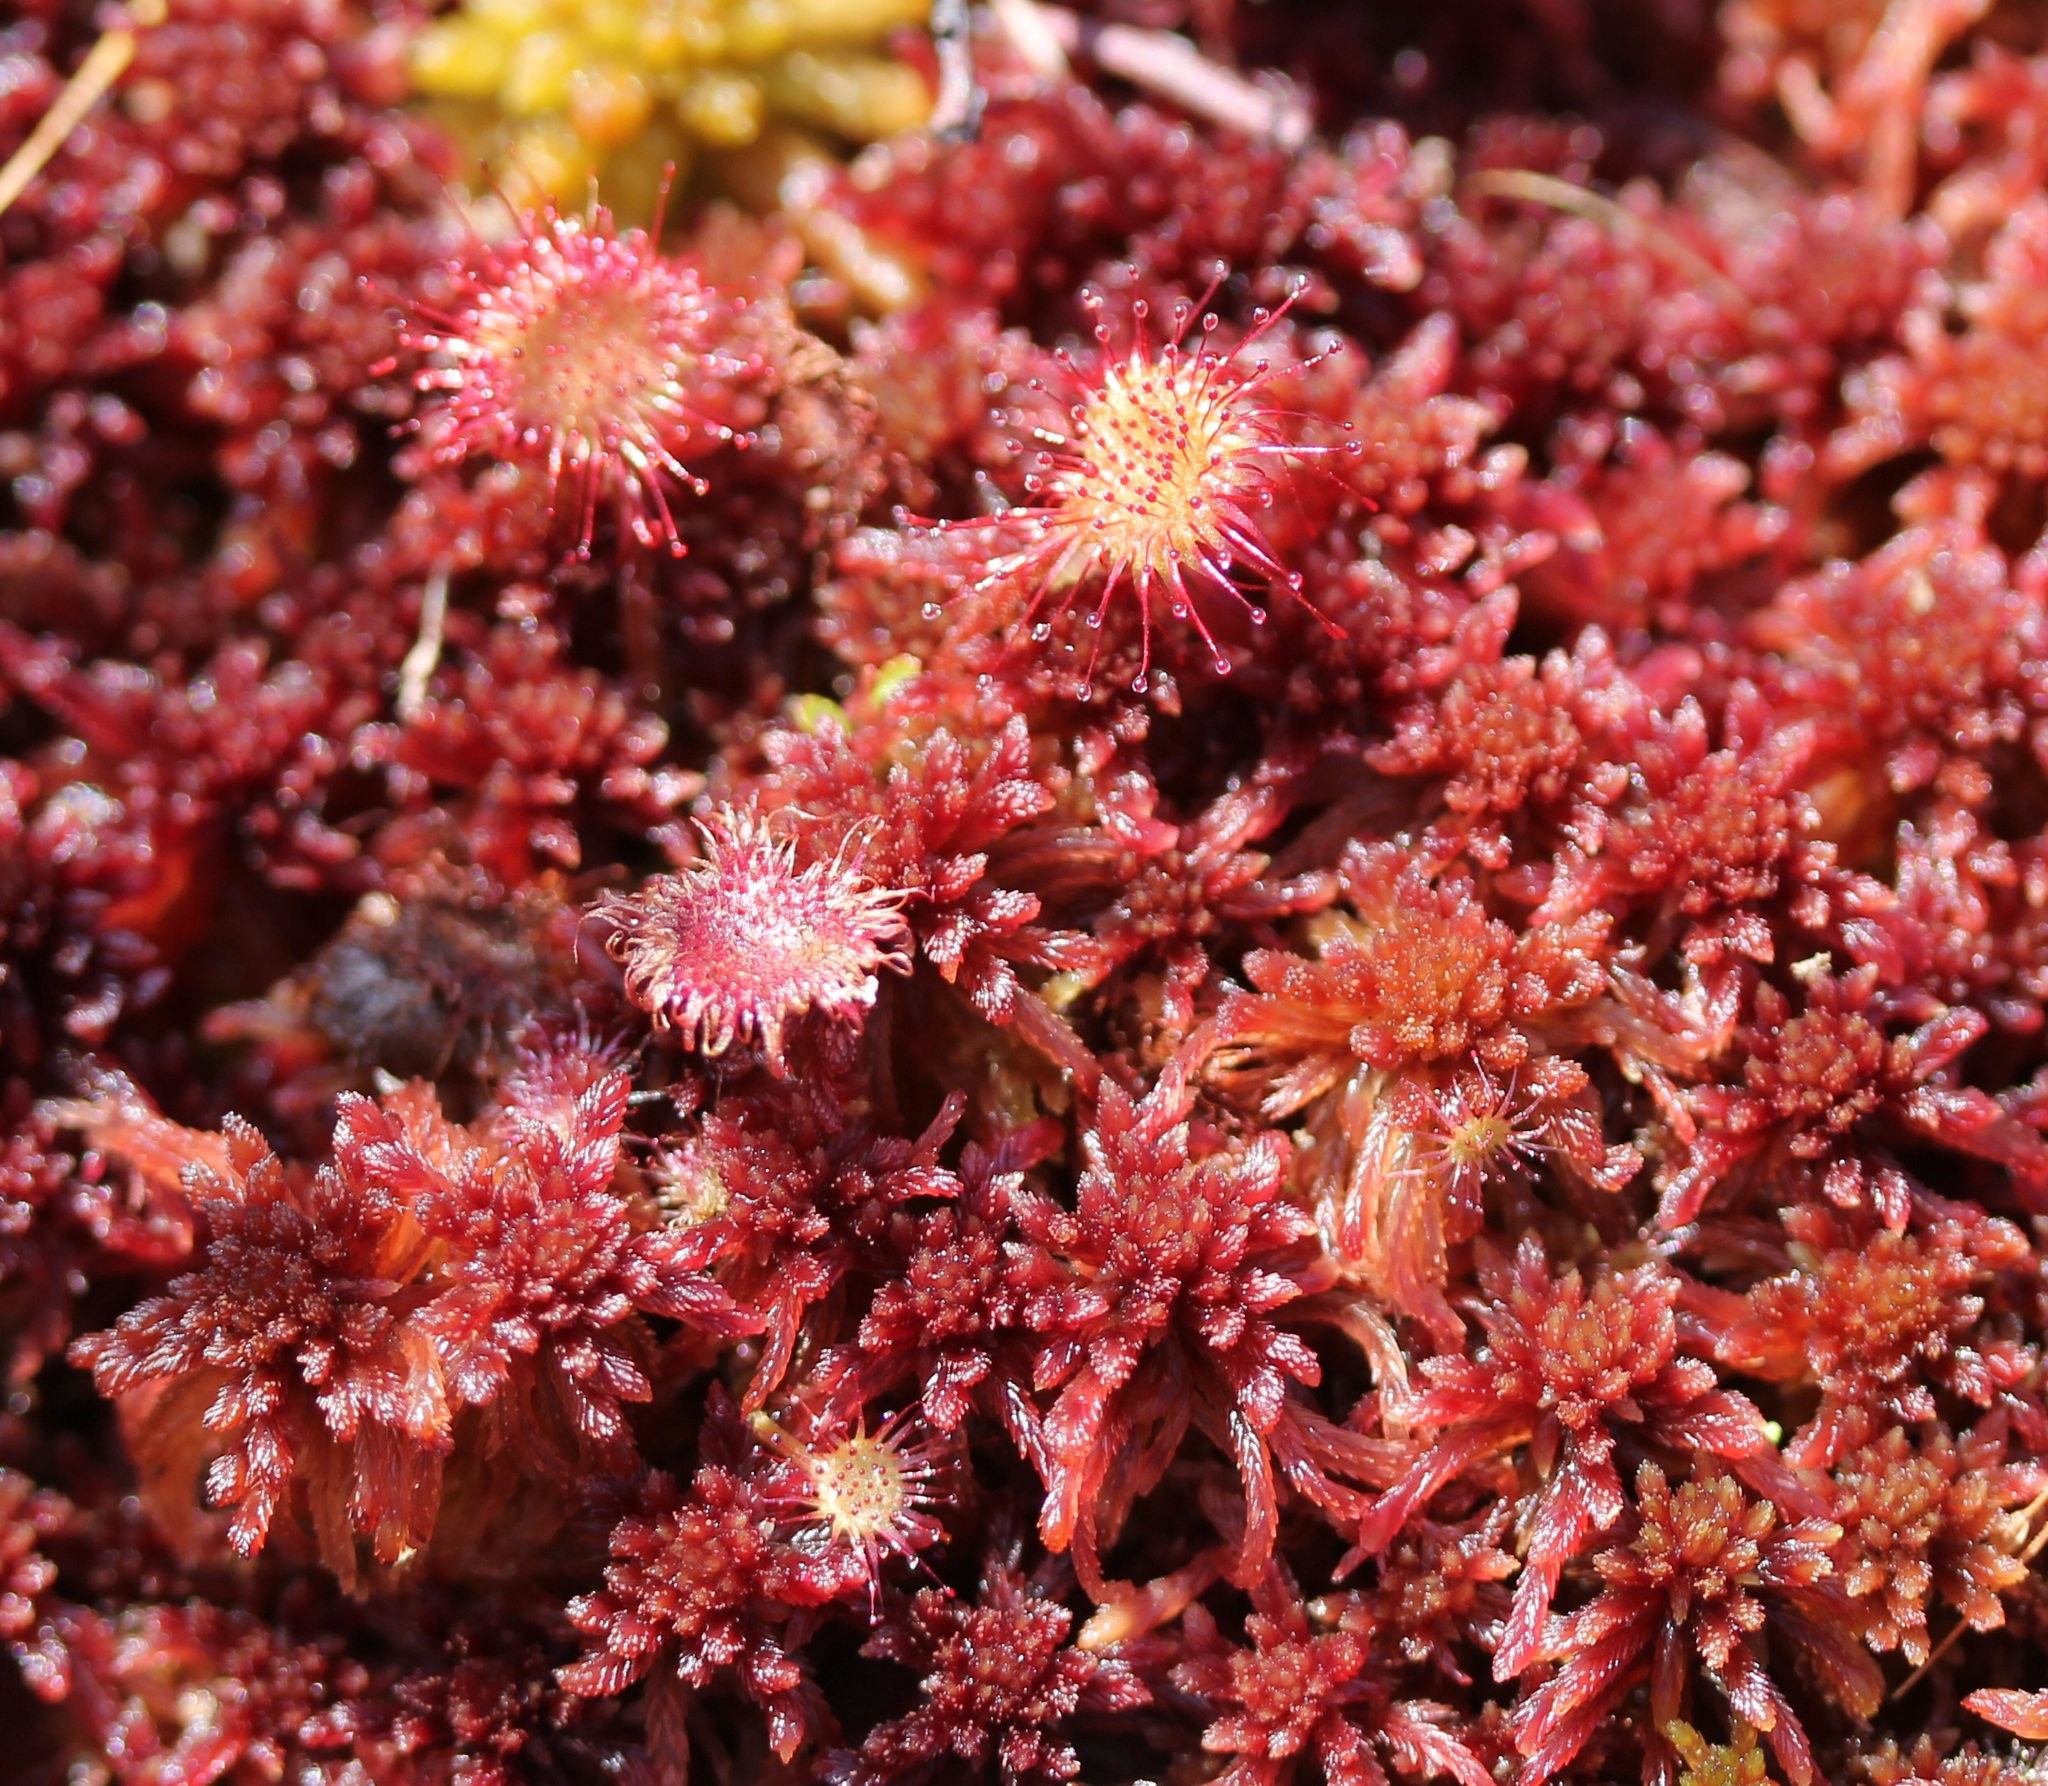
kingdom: Plantae
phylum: Tracheophyta
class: Magnoliopsida
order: Caryophyllales
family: Droseraceae
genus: Drosera
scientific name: Drosera rotundifolia
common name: Round-leaved sundew
